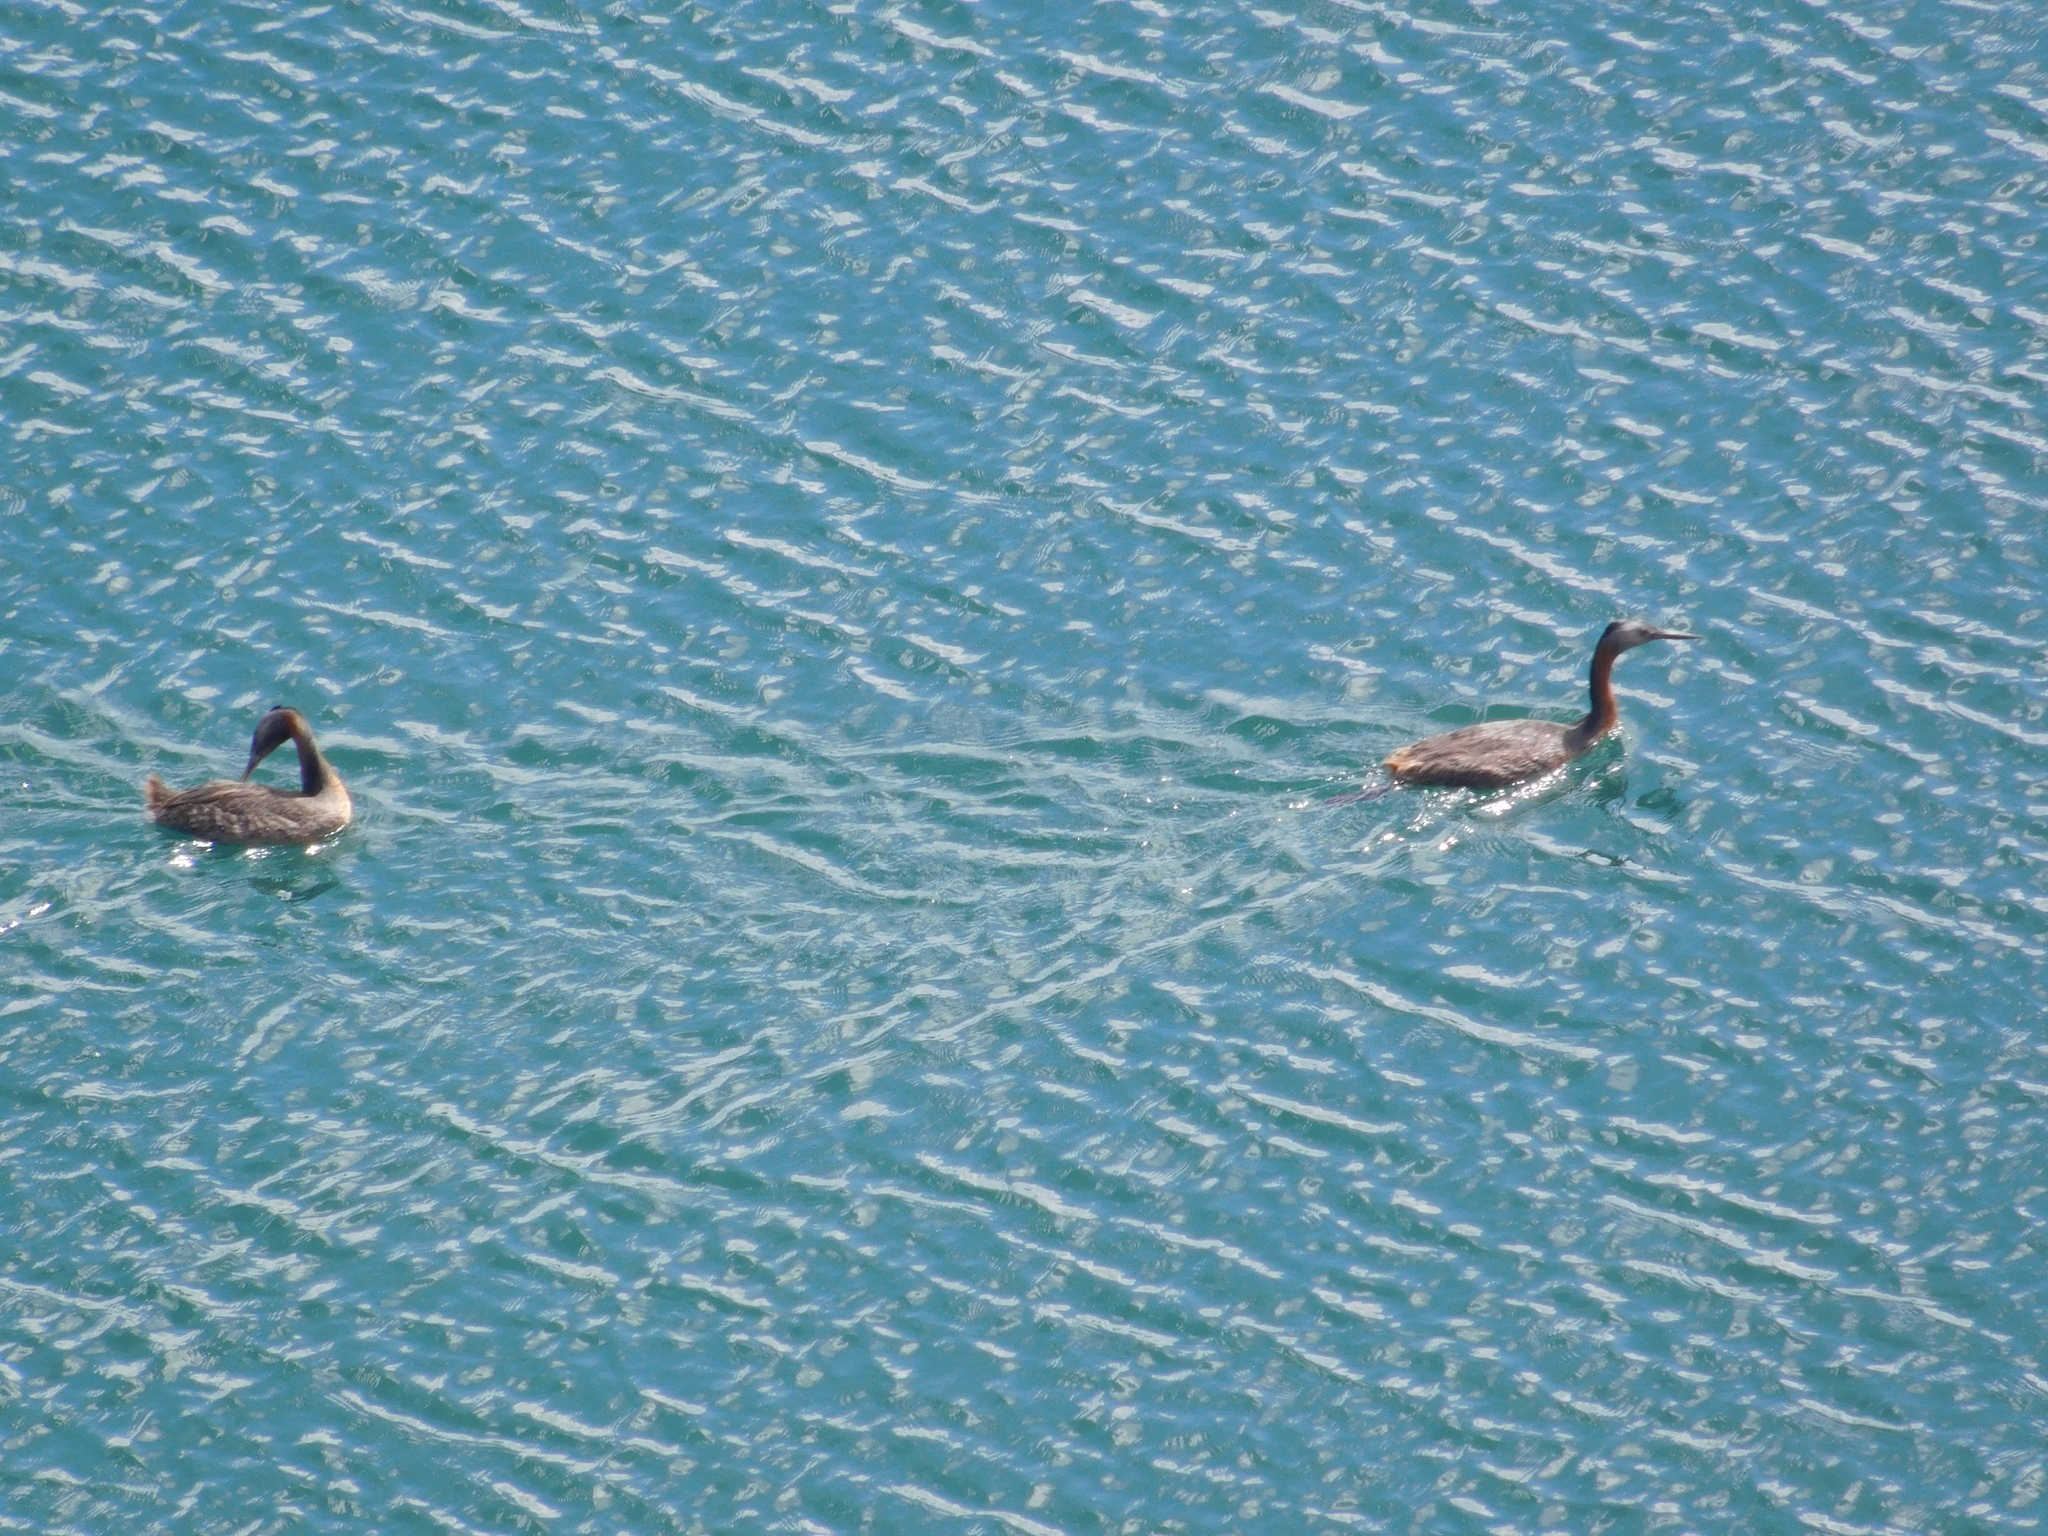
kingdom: Animalia
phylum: Chordata
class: Aves
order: Podicipediformes
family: Podicipedidae
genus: Podiceps
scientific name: Podiceps major
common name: Great grebe
